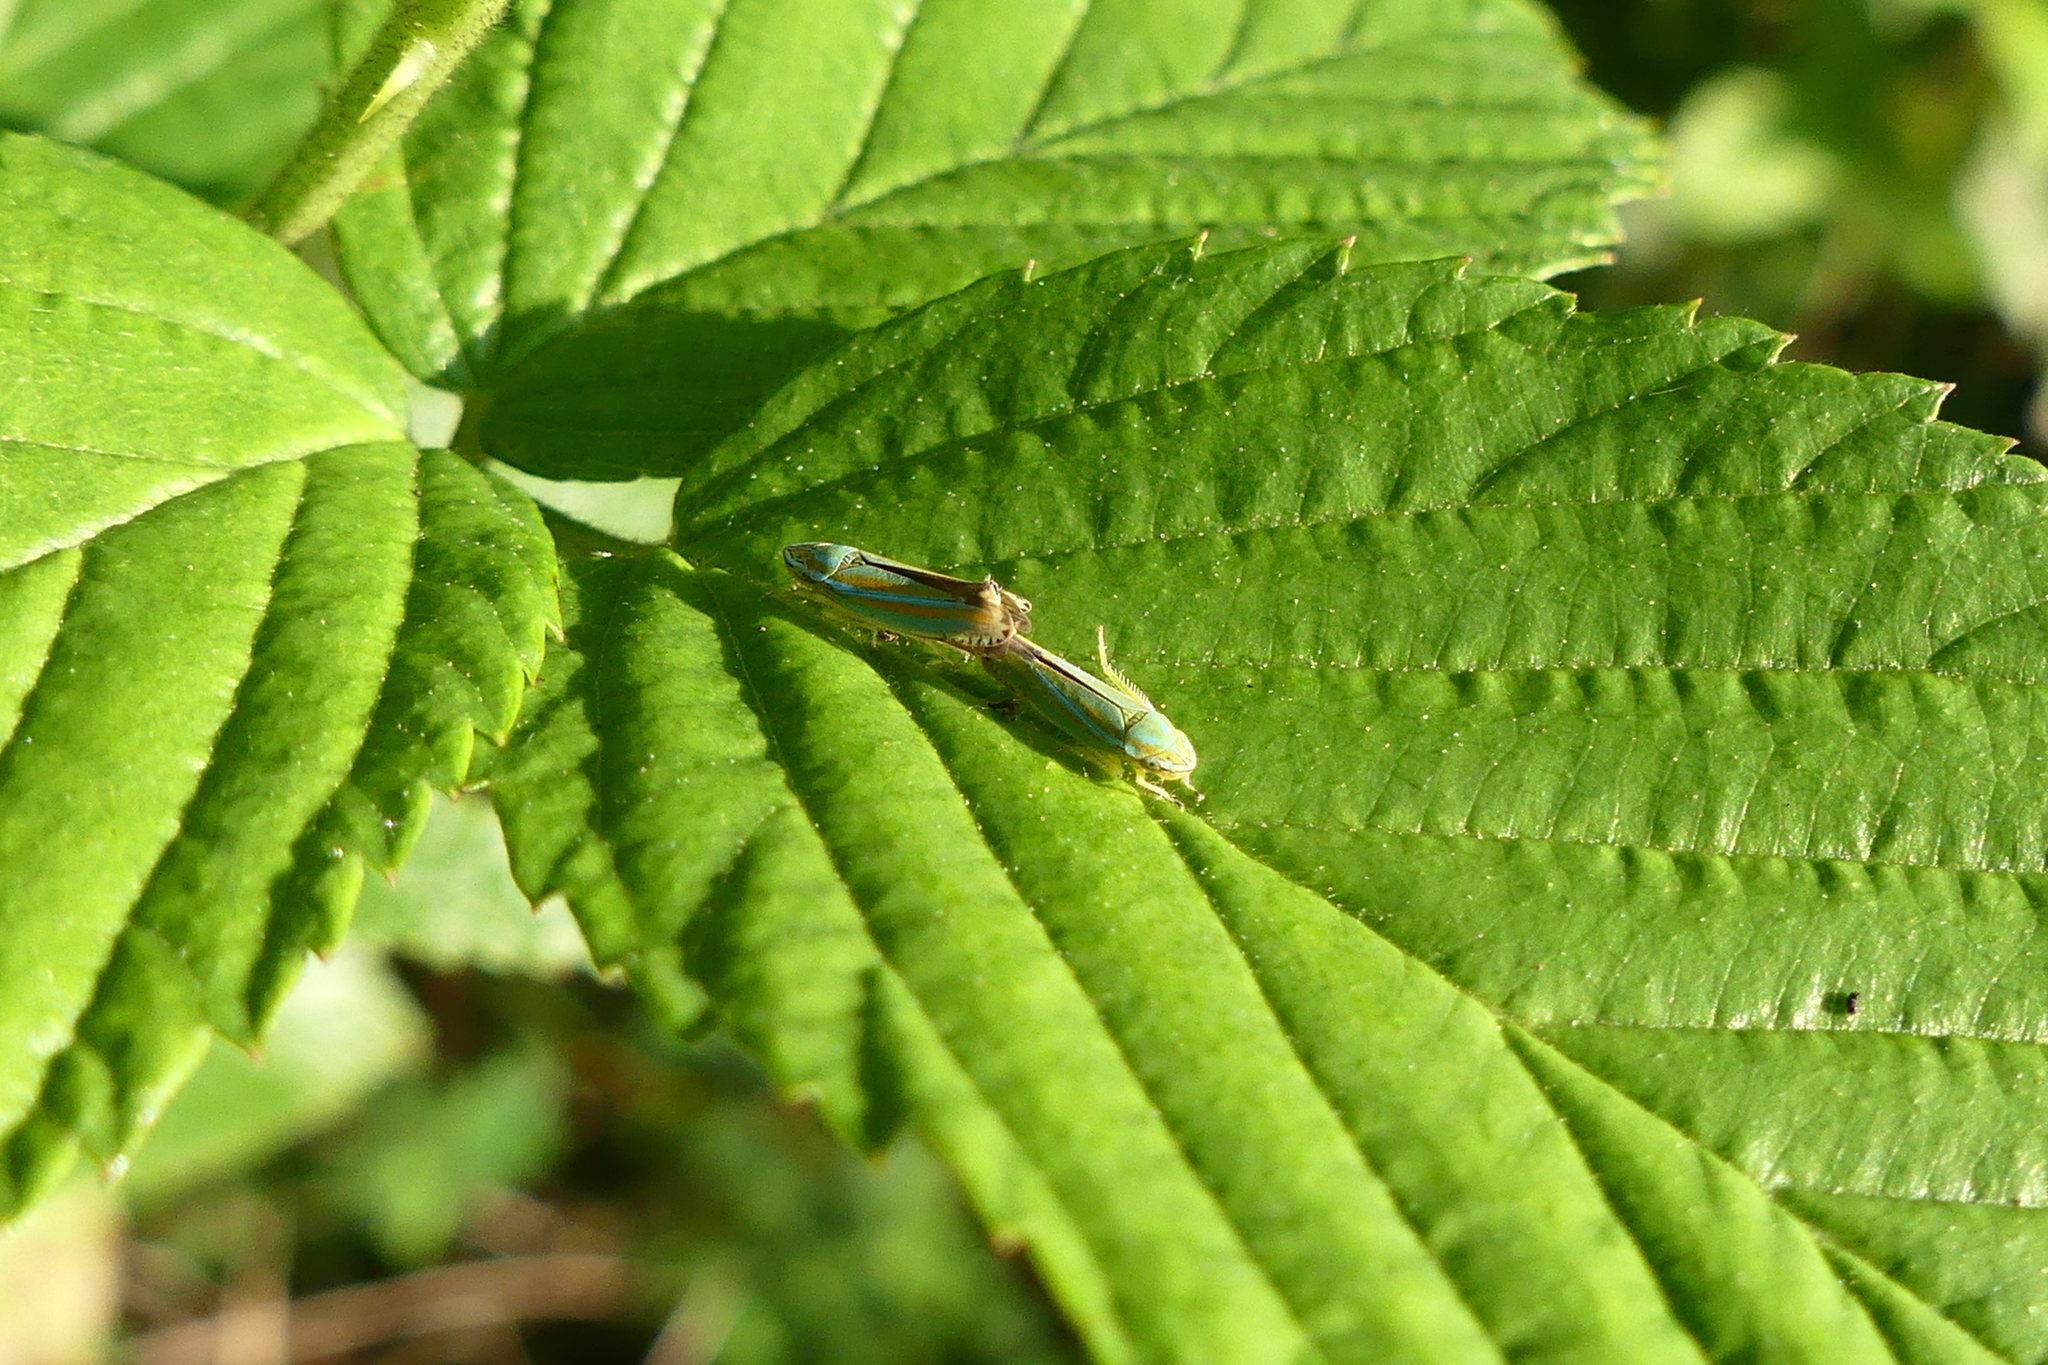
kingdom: Animalia
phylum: Arthropoda
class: Insecta
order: Hemiptera
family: Cicadellidae
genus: Graphocephala
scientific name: Graphocephala versuta
